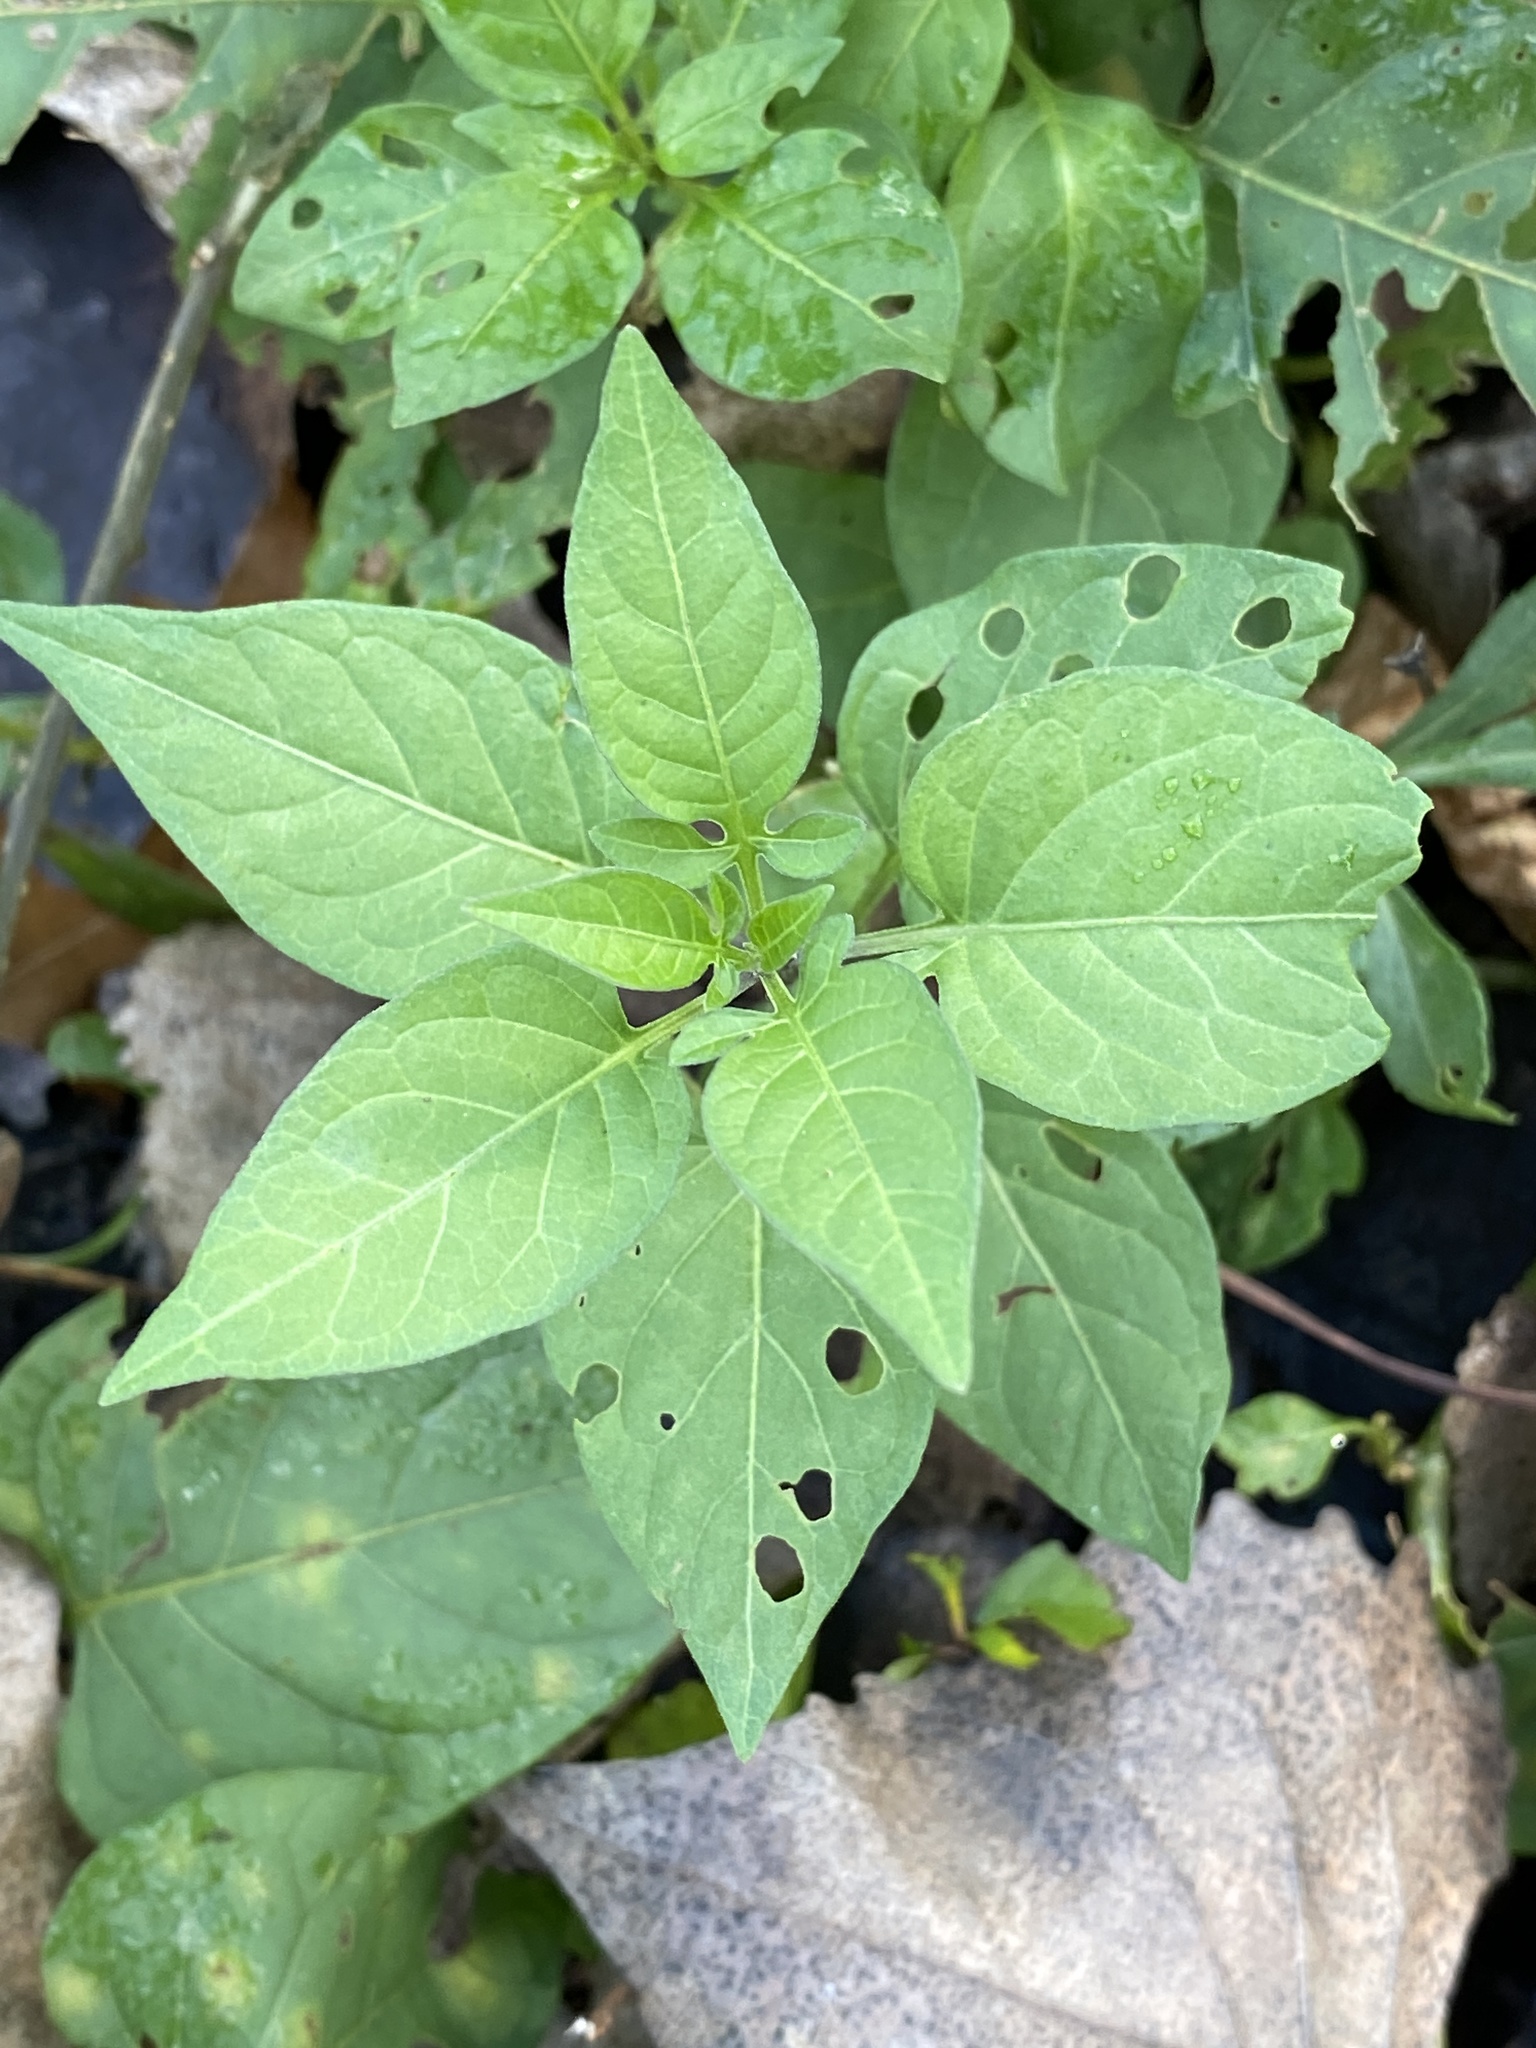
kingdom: Plantae
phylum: Tracheophyta
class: Magnoliopsida
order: Solanales
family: Solanaceae
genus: Solanum
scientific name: Solanum dulcamara
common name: Climbing nightshade
